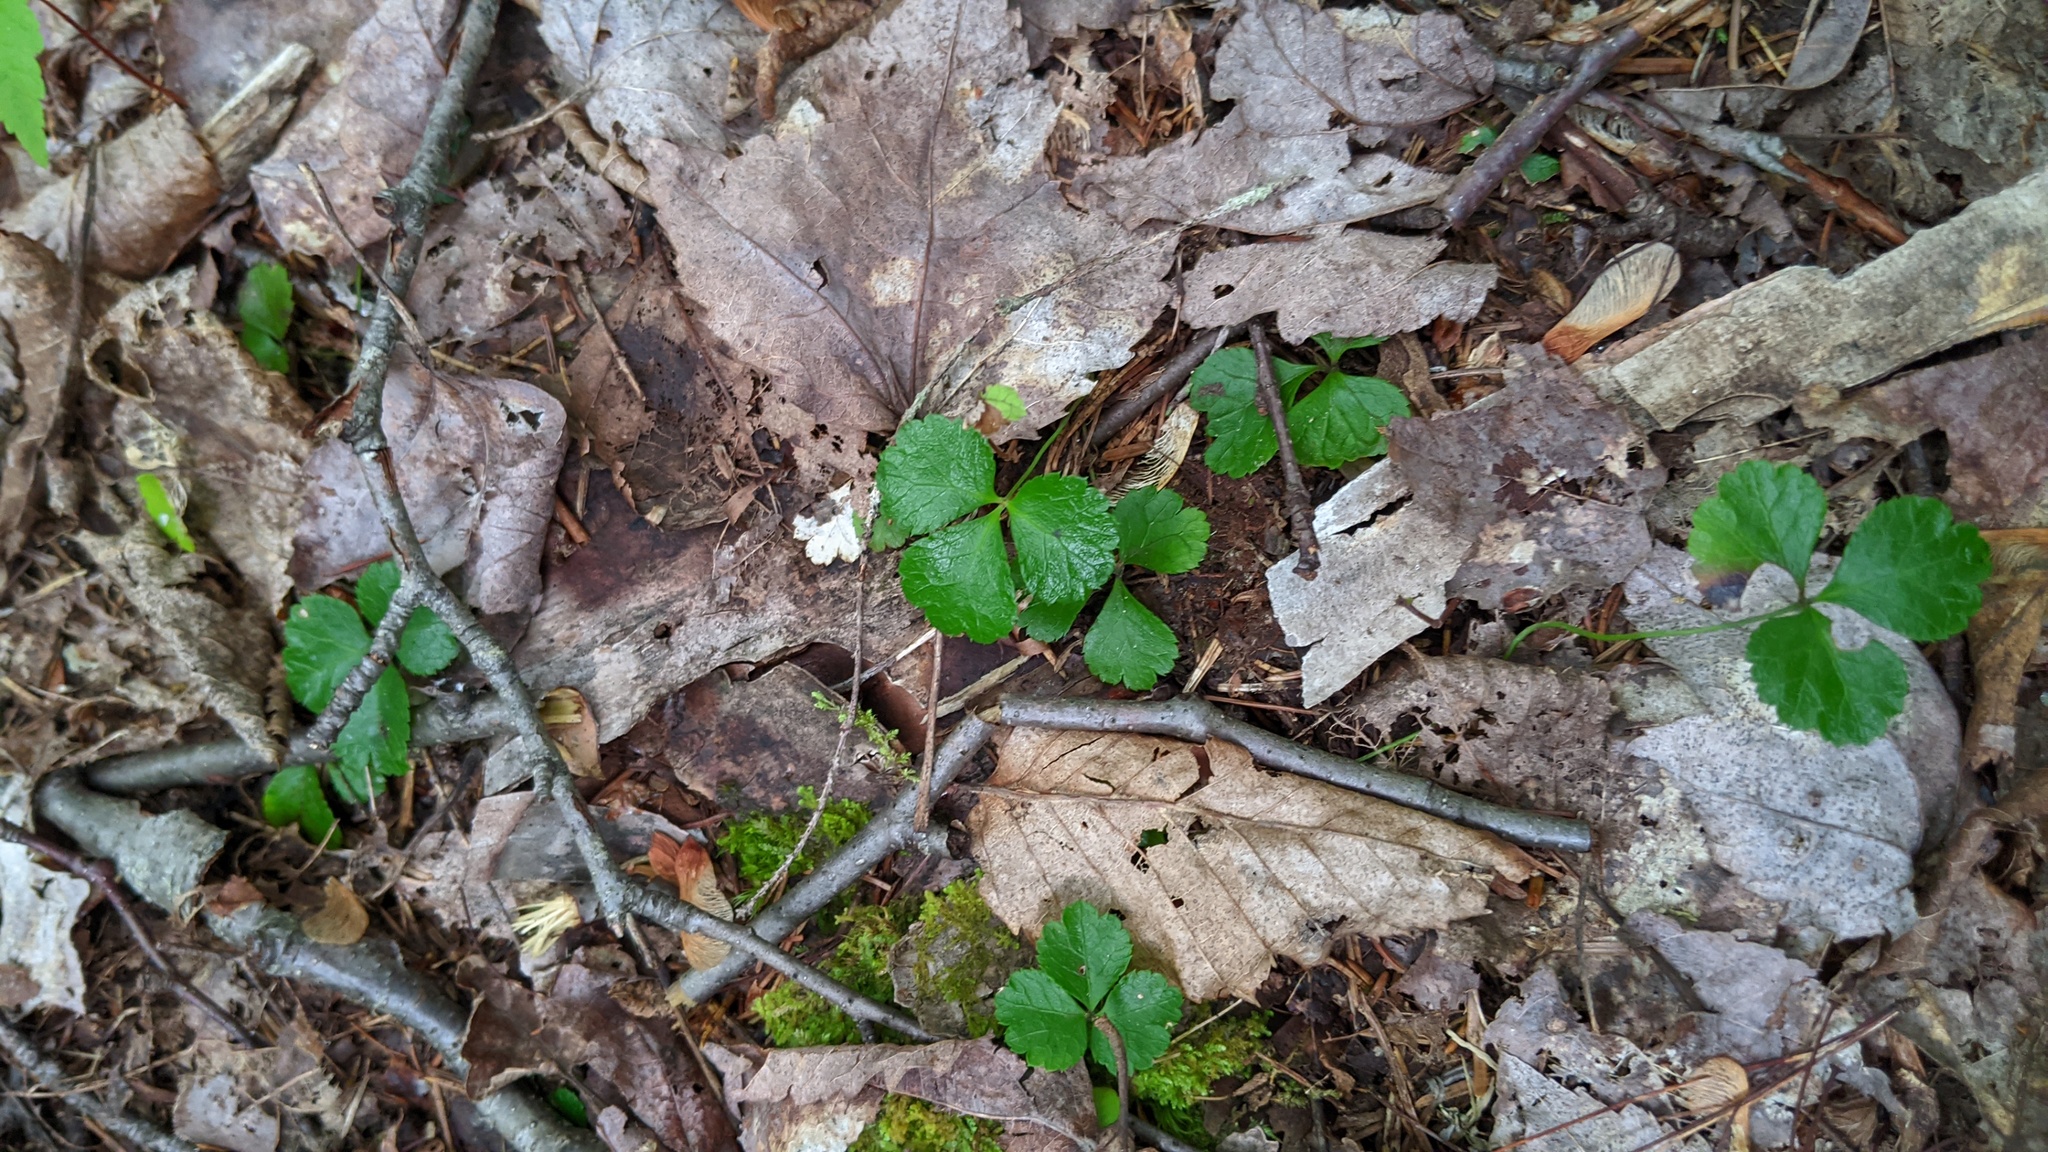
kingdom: Plantae
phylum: Tracheophyta
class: Magnoliopsida
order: Ranunculales
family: Ranunculaceae
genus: Coptis
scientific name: Coptis trifolia
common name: Canker-root
